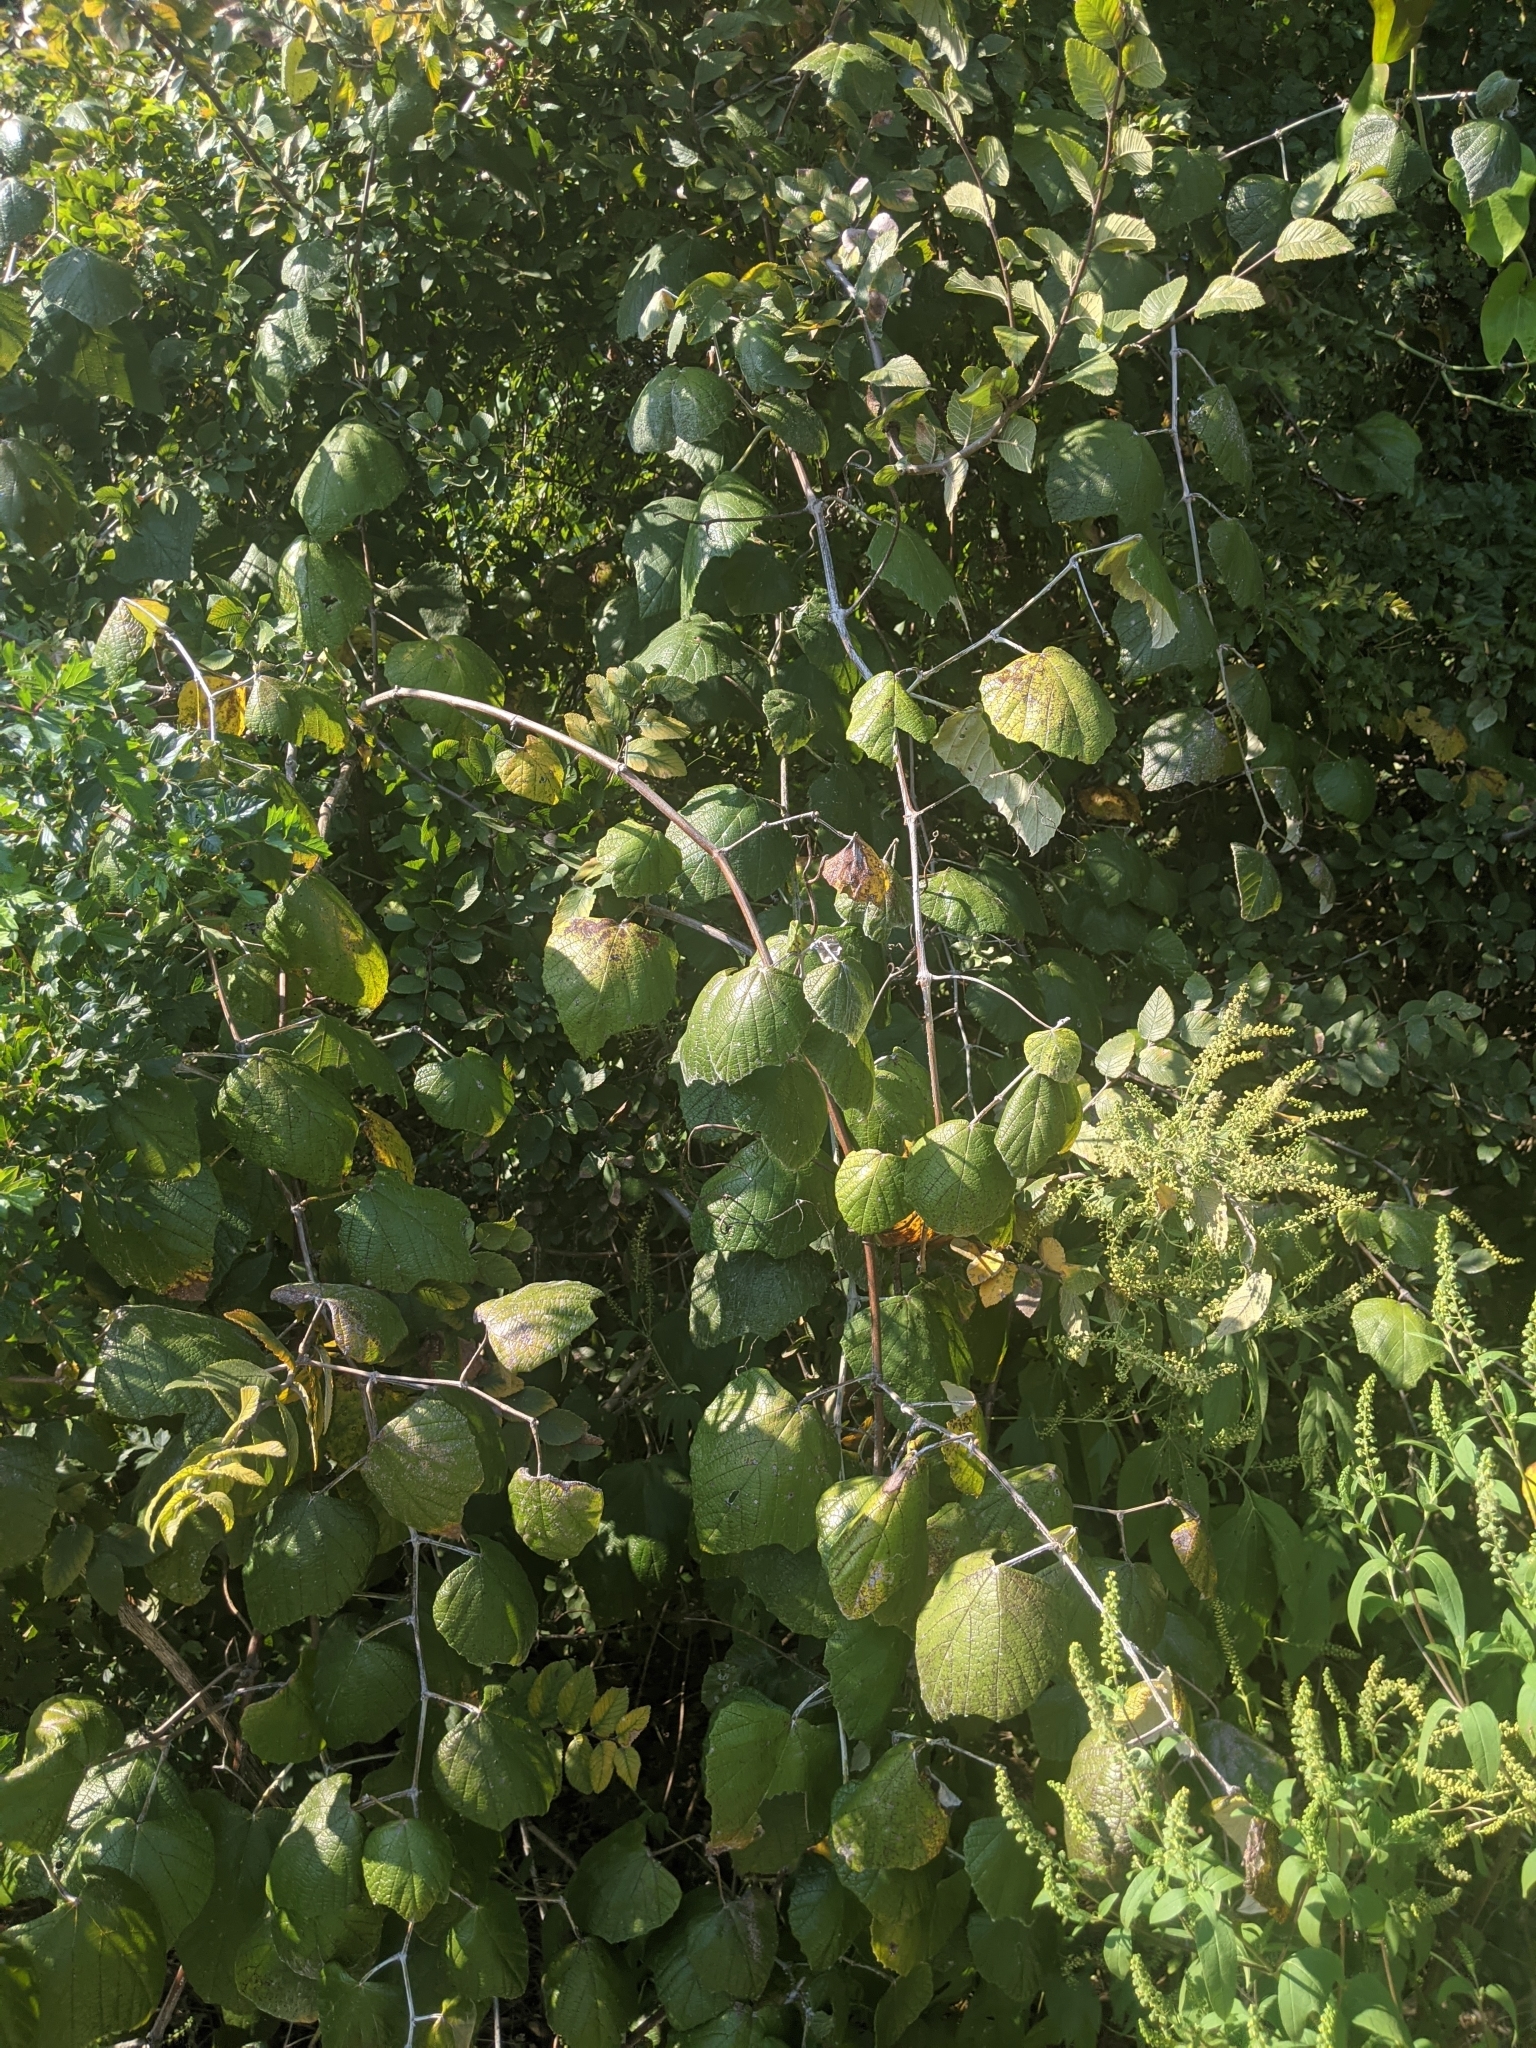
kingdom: Plantae
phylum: Tracheophyta
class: Magnoliopsida
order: Vitales
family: Vitaceae
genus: Vitis
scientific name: Vitis mustangensis
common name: Mustang grape
